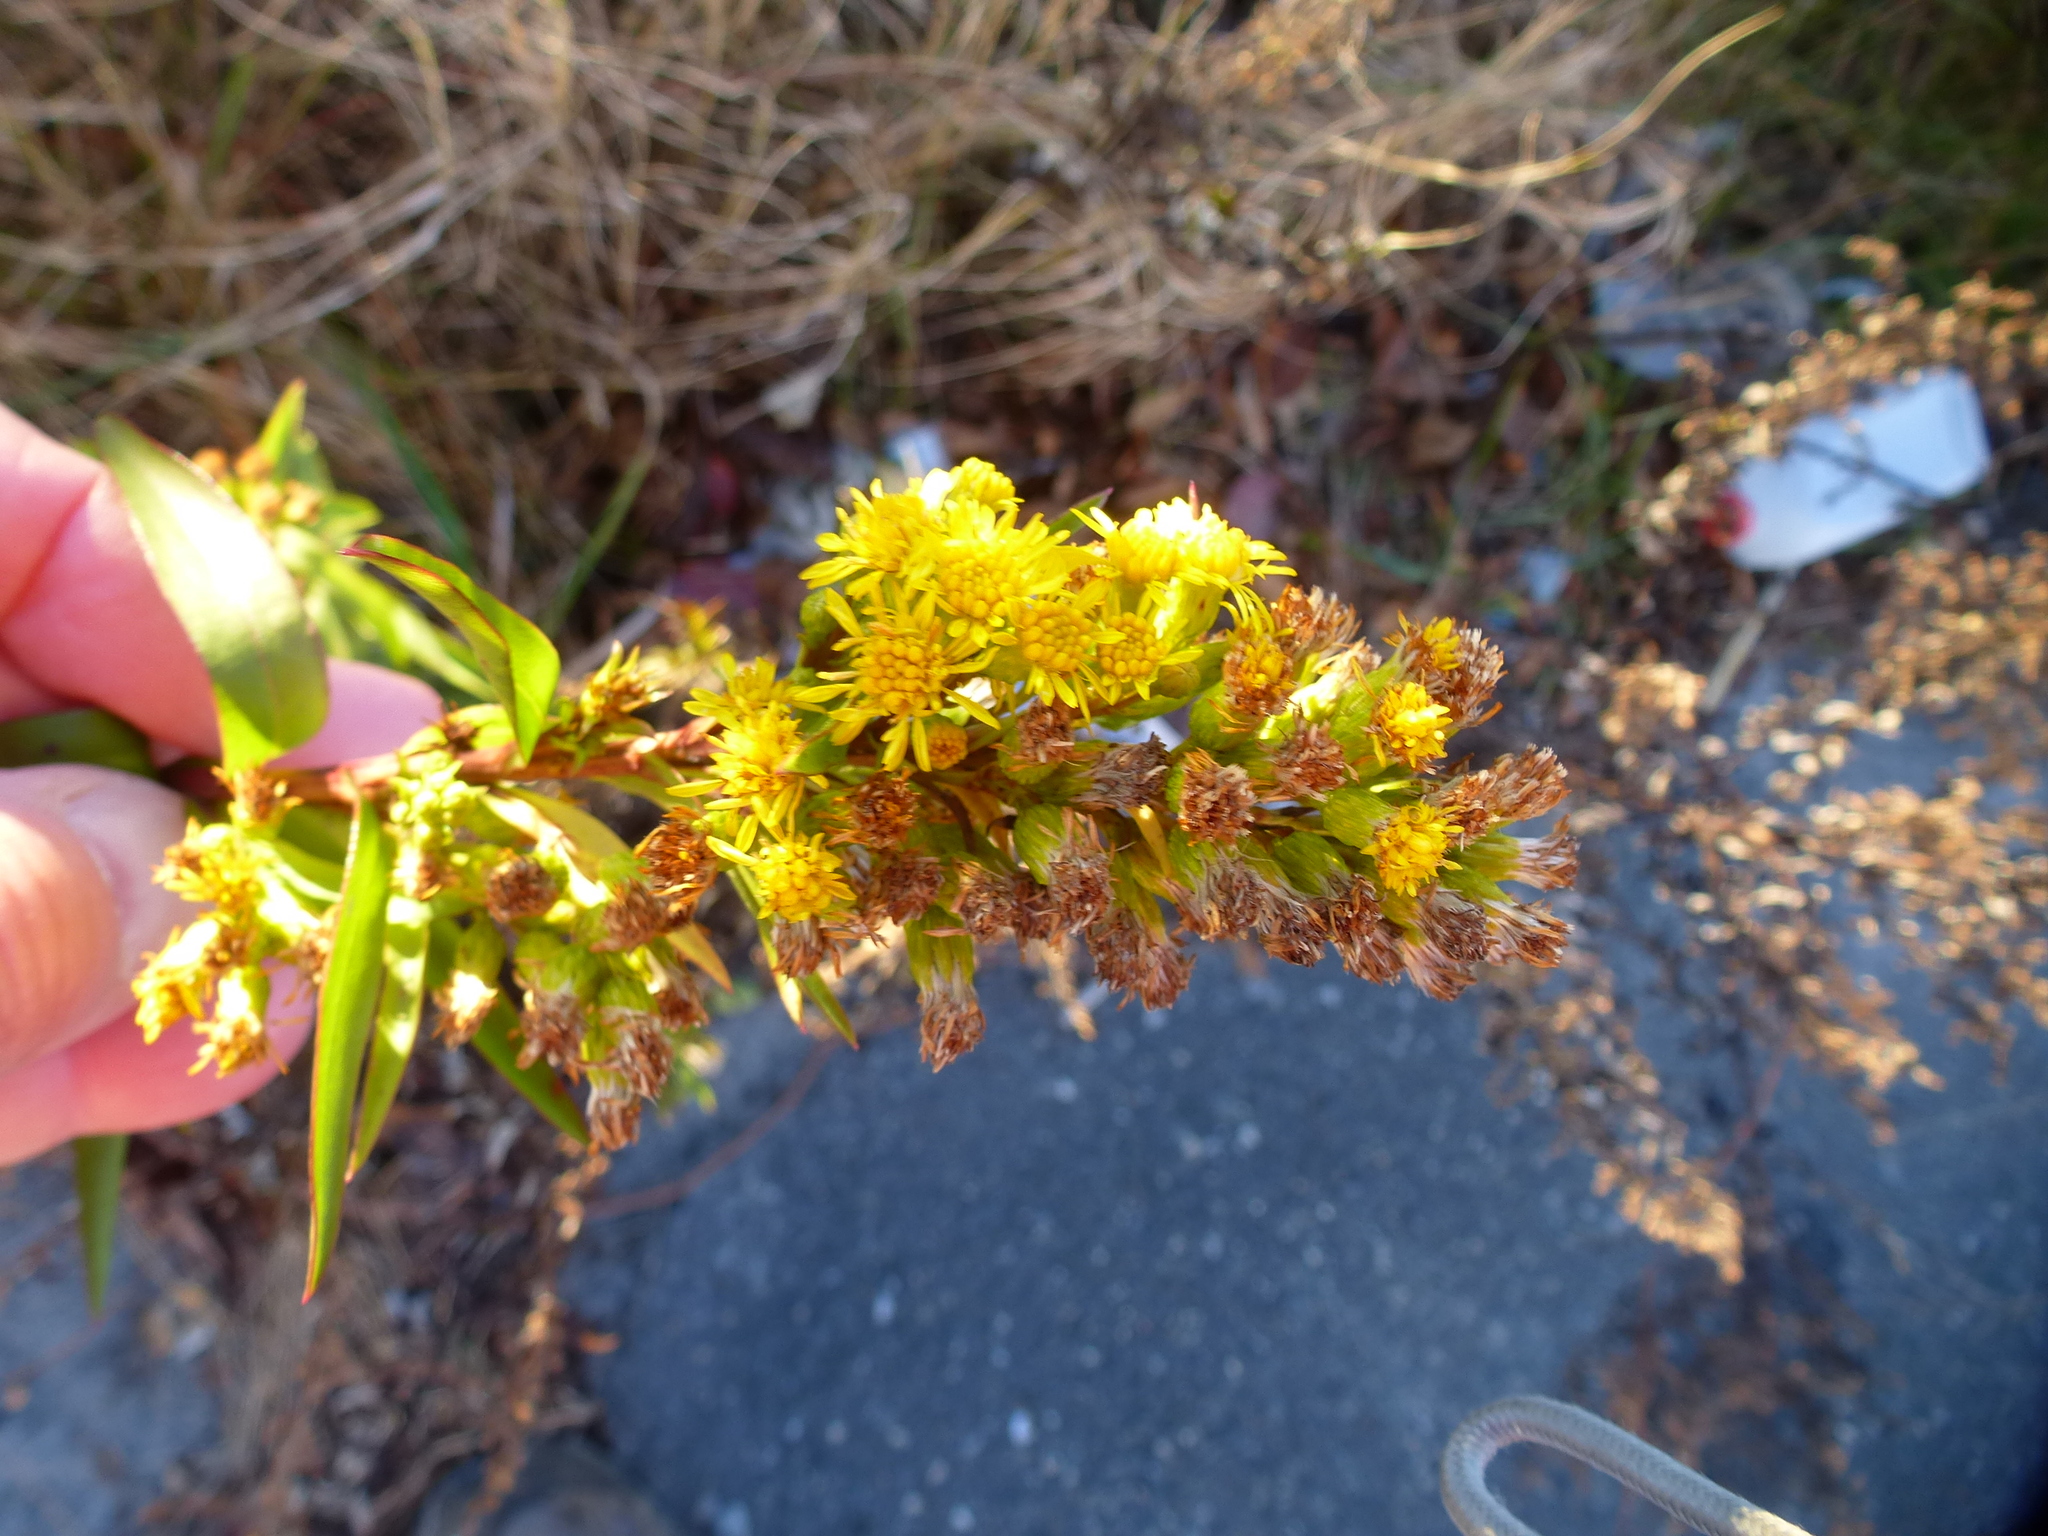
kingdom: Plantae
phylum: Tracheophyta
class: Magnoliopsida
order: Asterales
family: Asteraceae
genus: Solidago
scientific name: Solidago sempervirens
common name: Salt-marsh goldenrod
